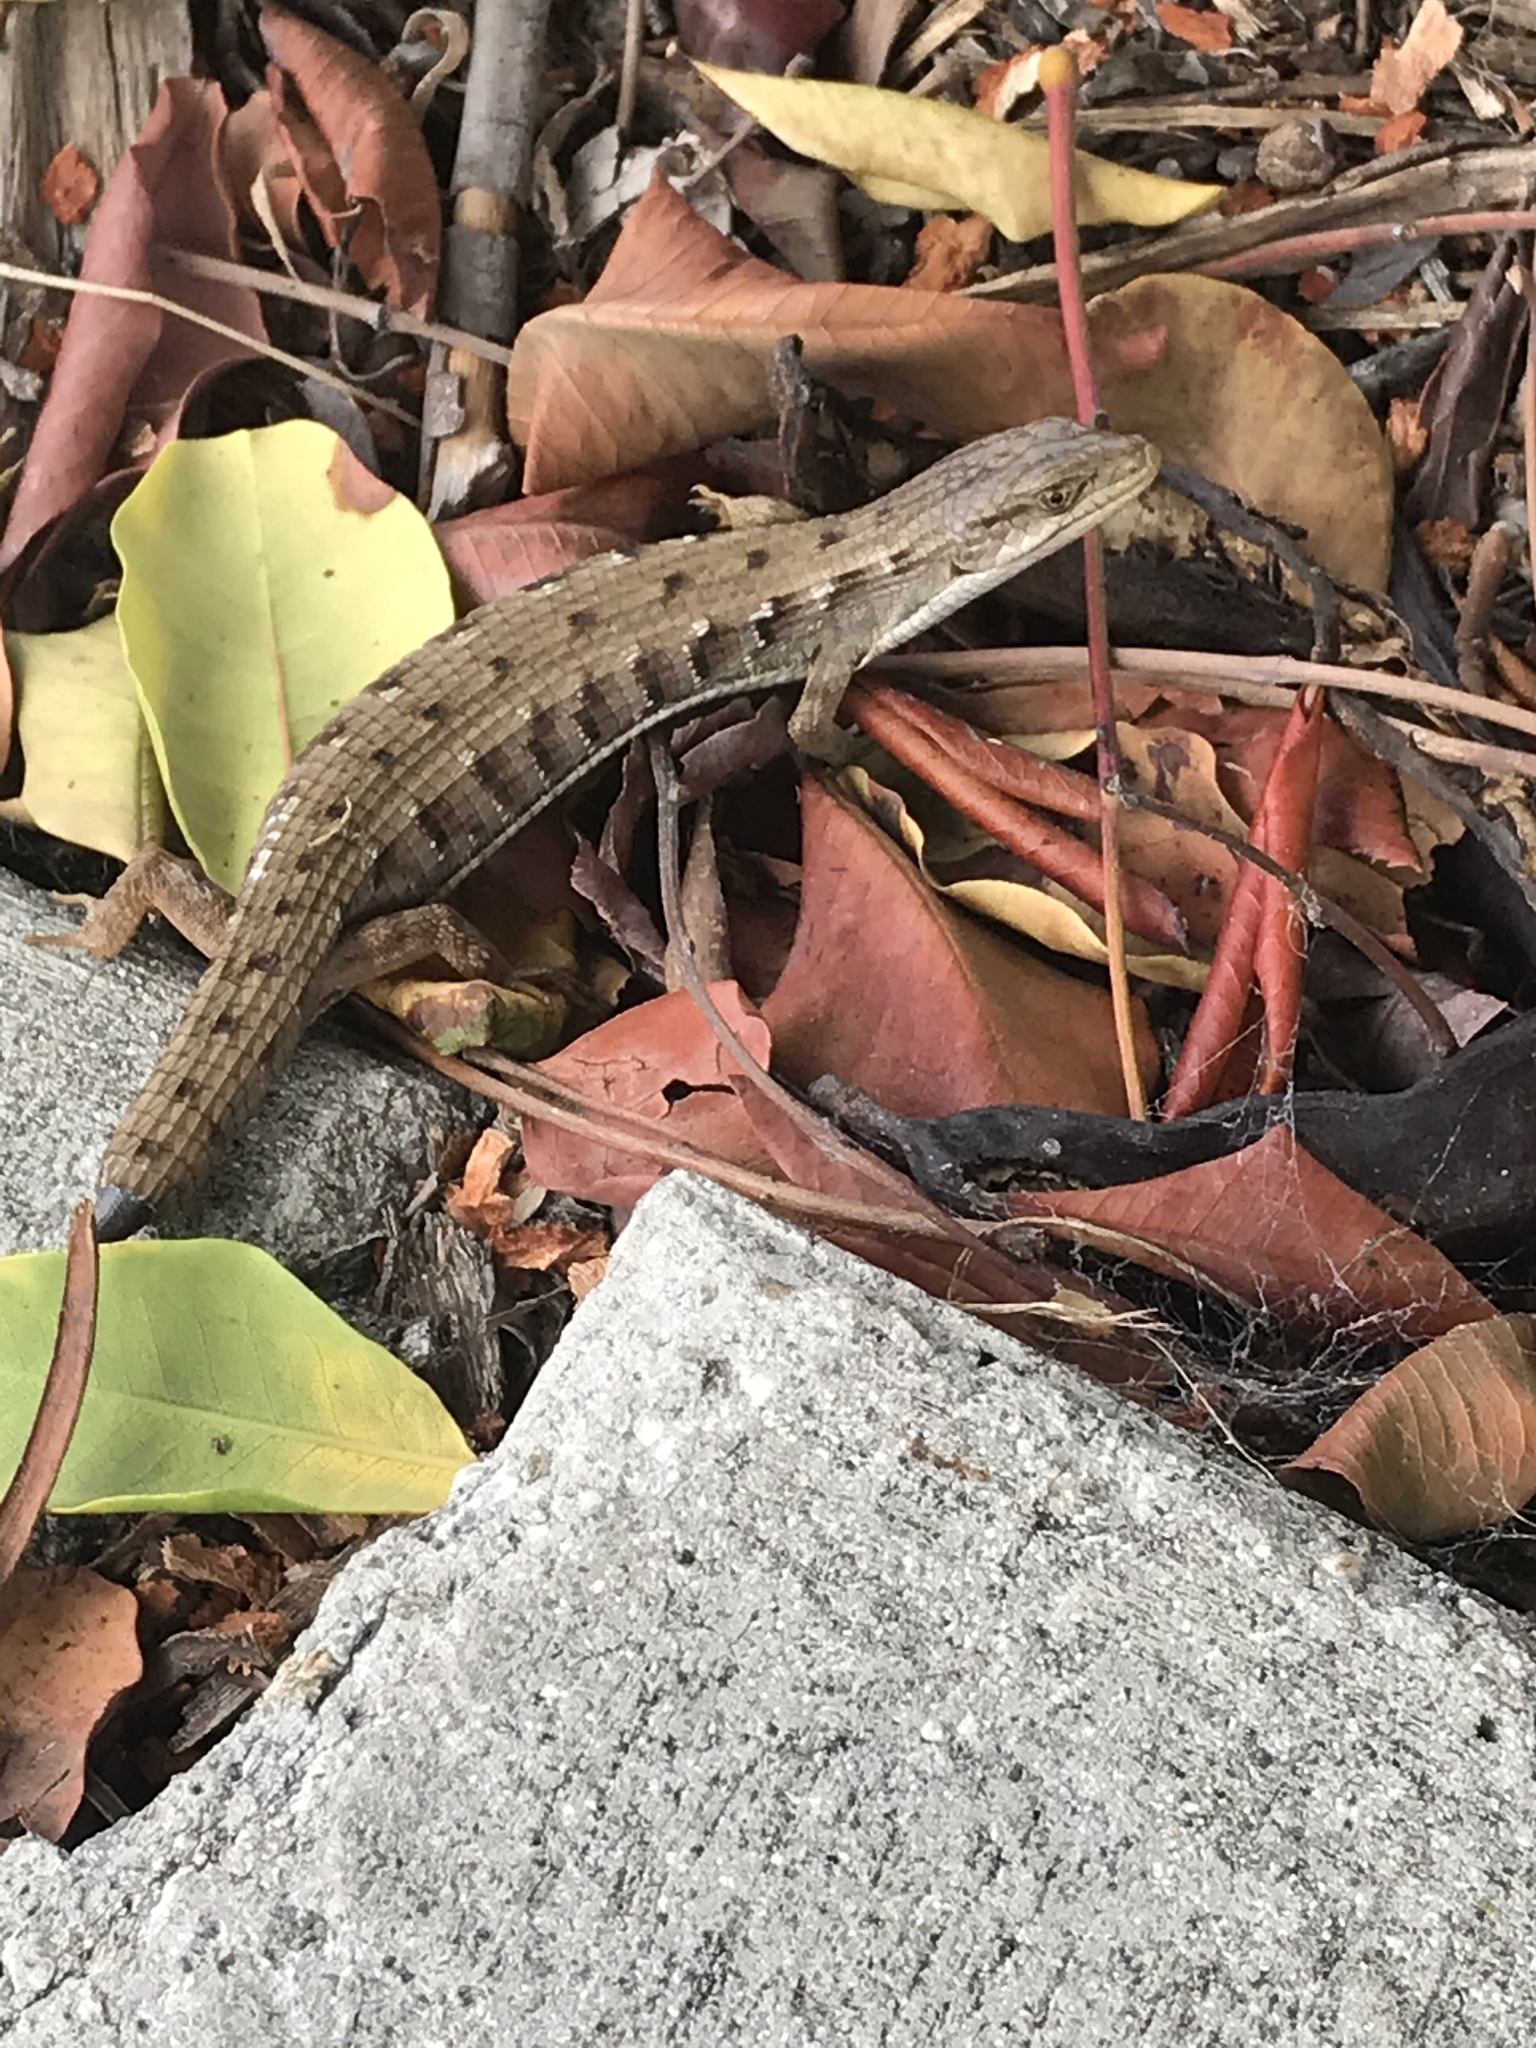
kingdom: Animalia
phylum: Chordata
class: Squamata
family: Anguidae
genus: Elgaria
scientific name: Elgaria multicarinata
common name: Southern alligator lizard
